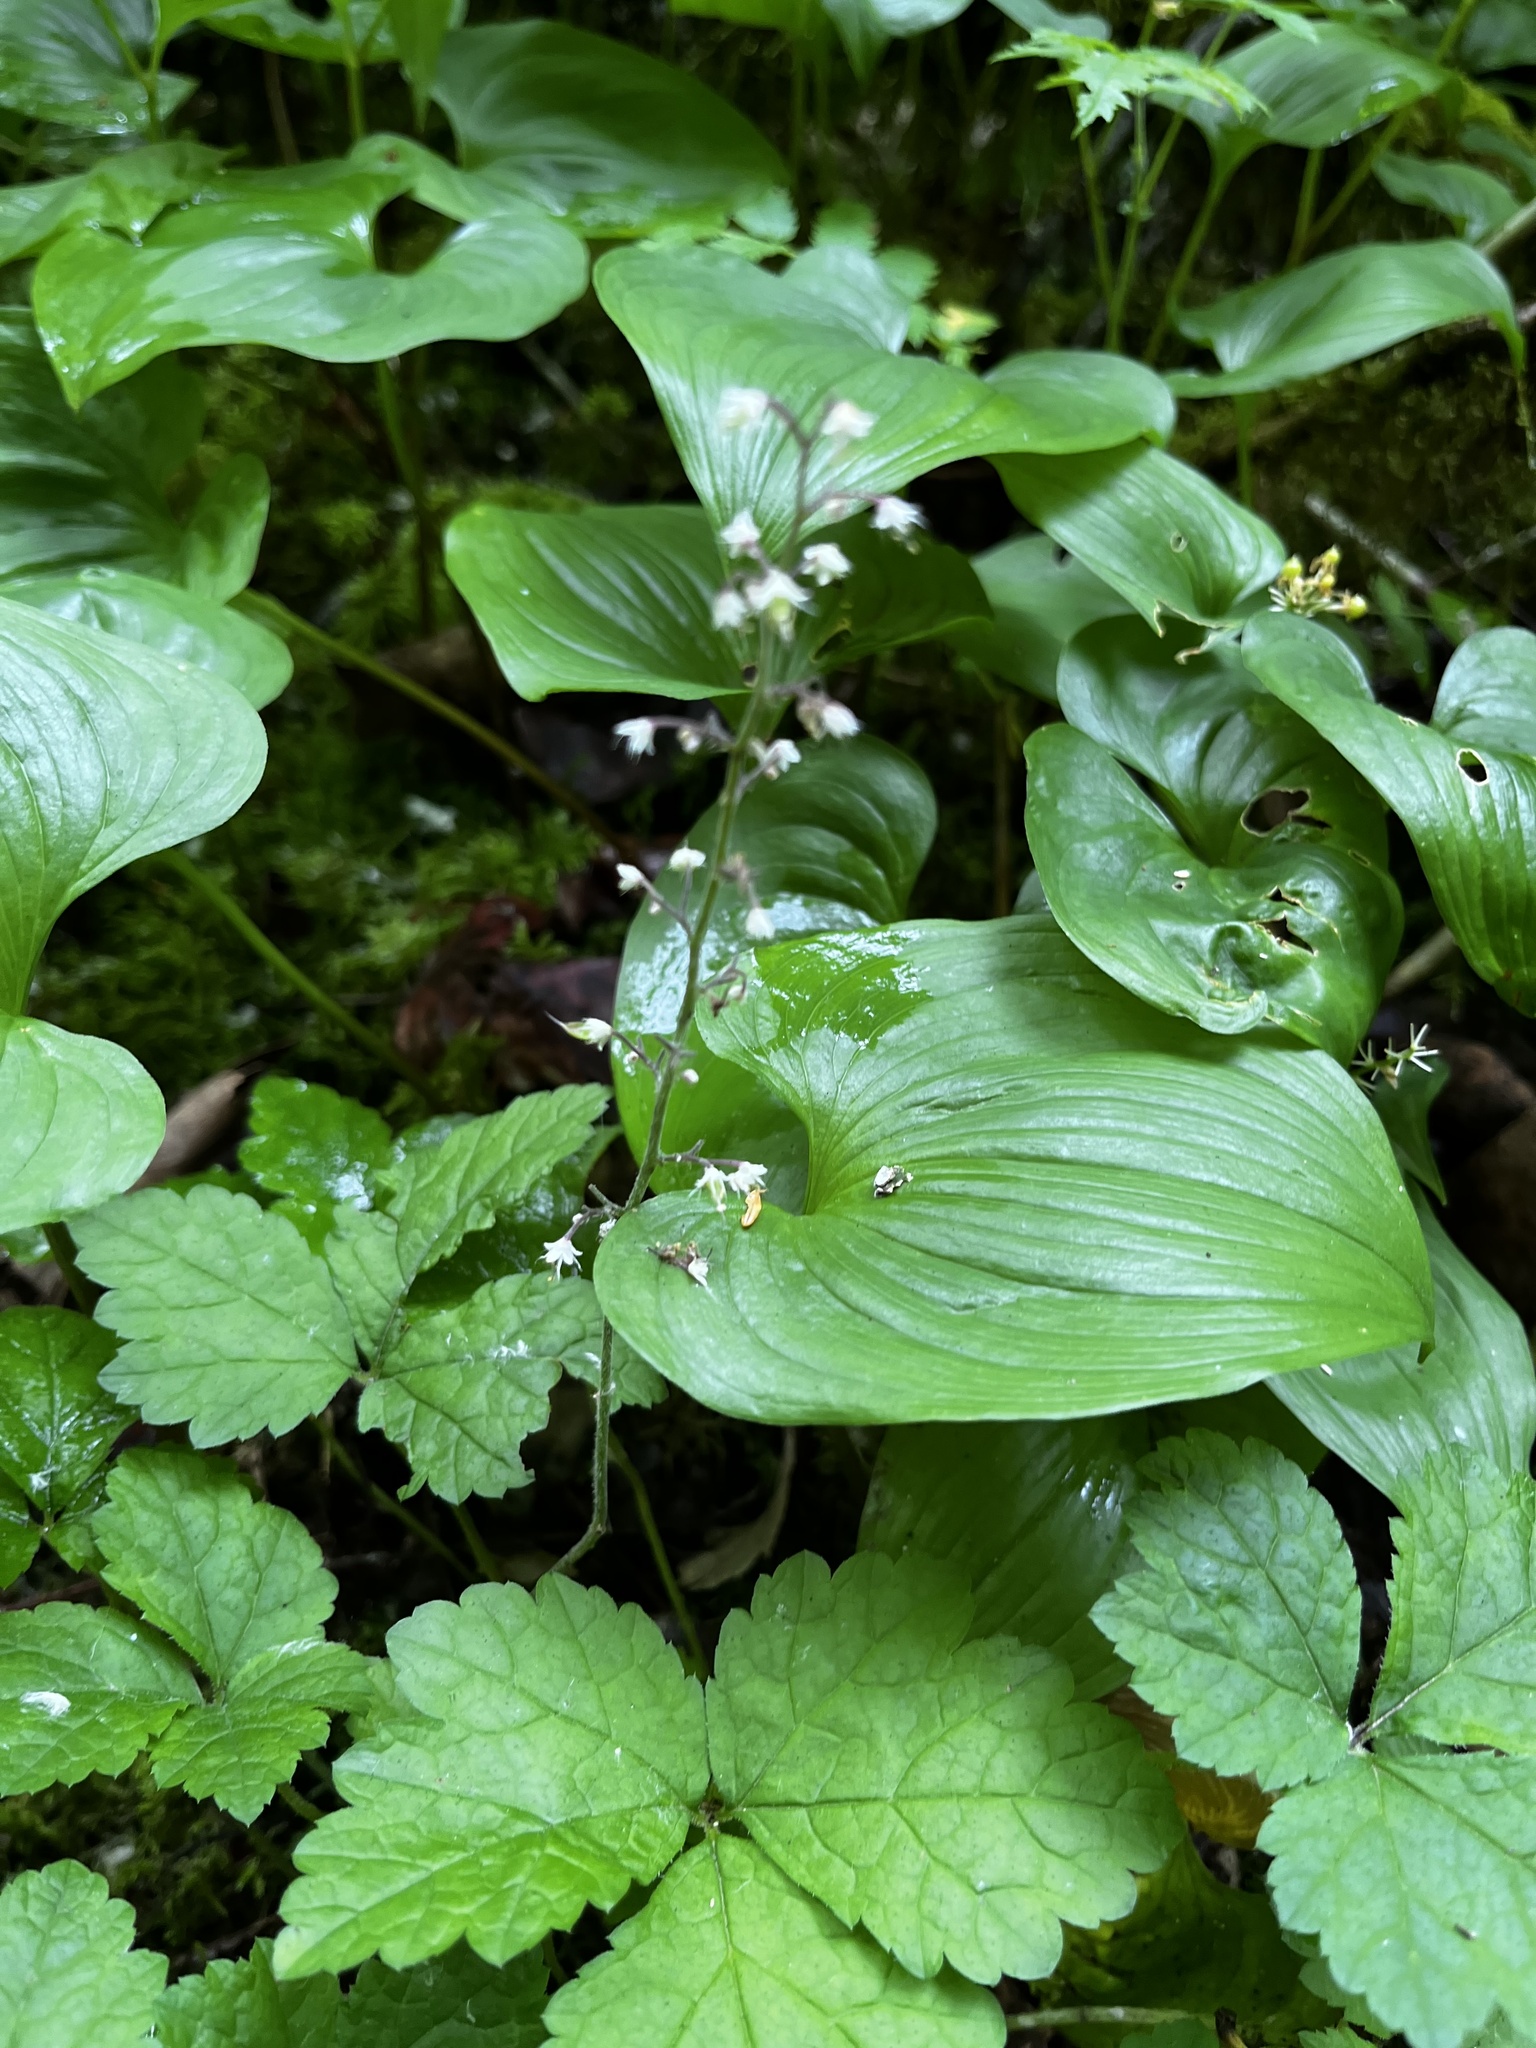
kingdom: Plantae
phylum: Tracheophyta
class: Magnoliopsida
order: Saxifragales
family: Saxifragaceae
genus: Tiarella
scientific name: Tiarella trifoliata
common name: Sugar-scoop
